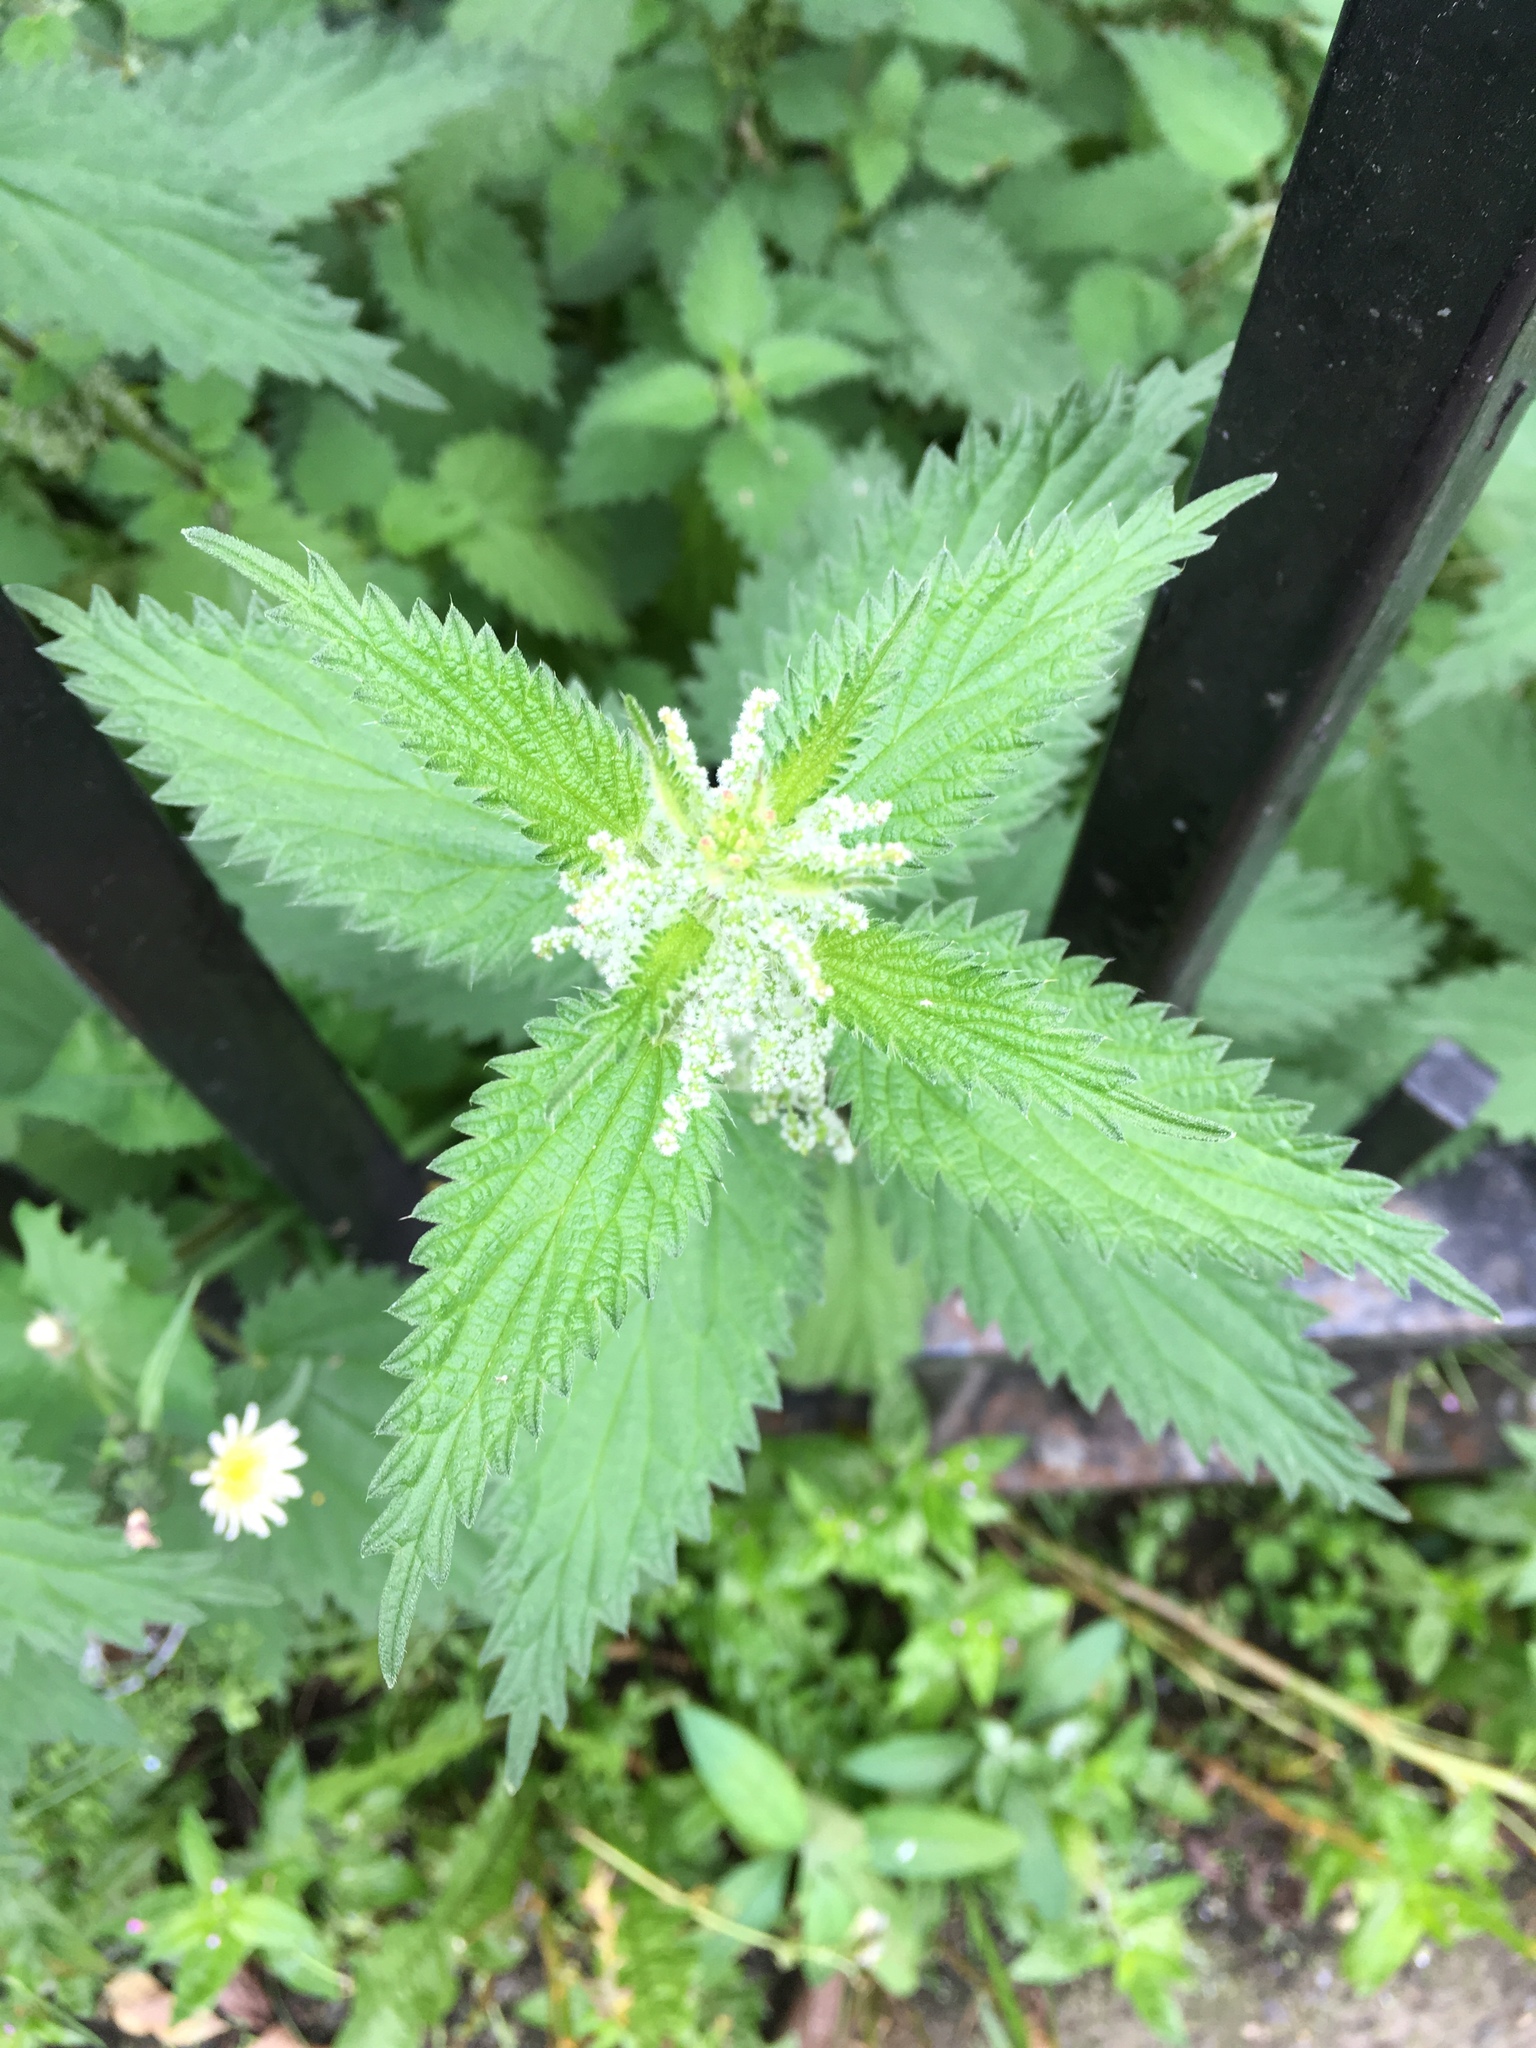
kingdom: Plantae
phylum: Tracheophyta
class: Magnoliopsida
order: Rosales
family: Urticaceae
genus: Urtica
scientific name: Urtica dioica
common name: Common nettle
